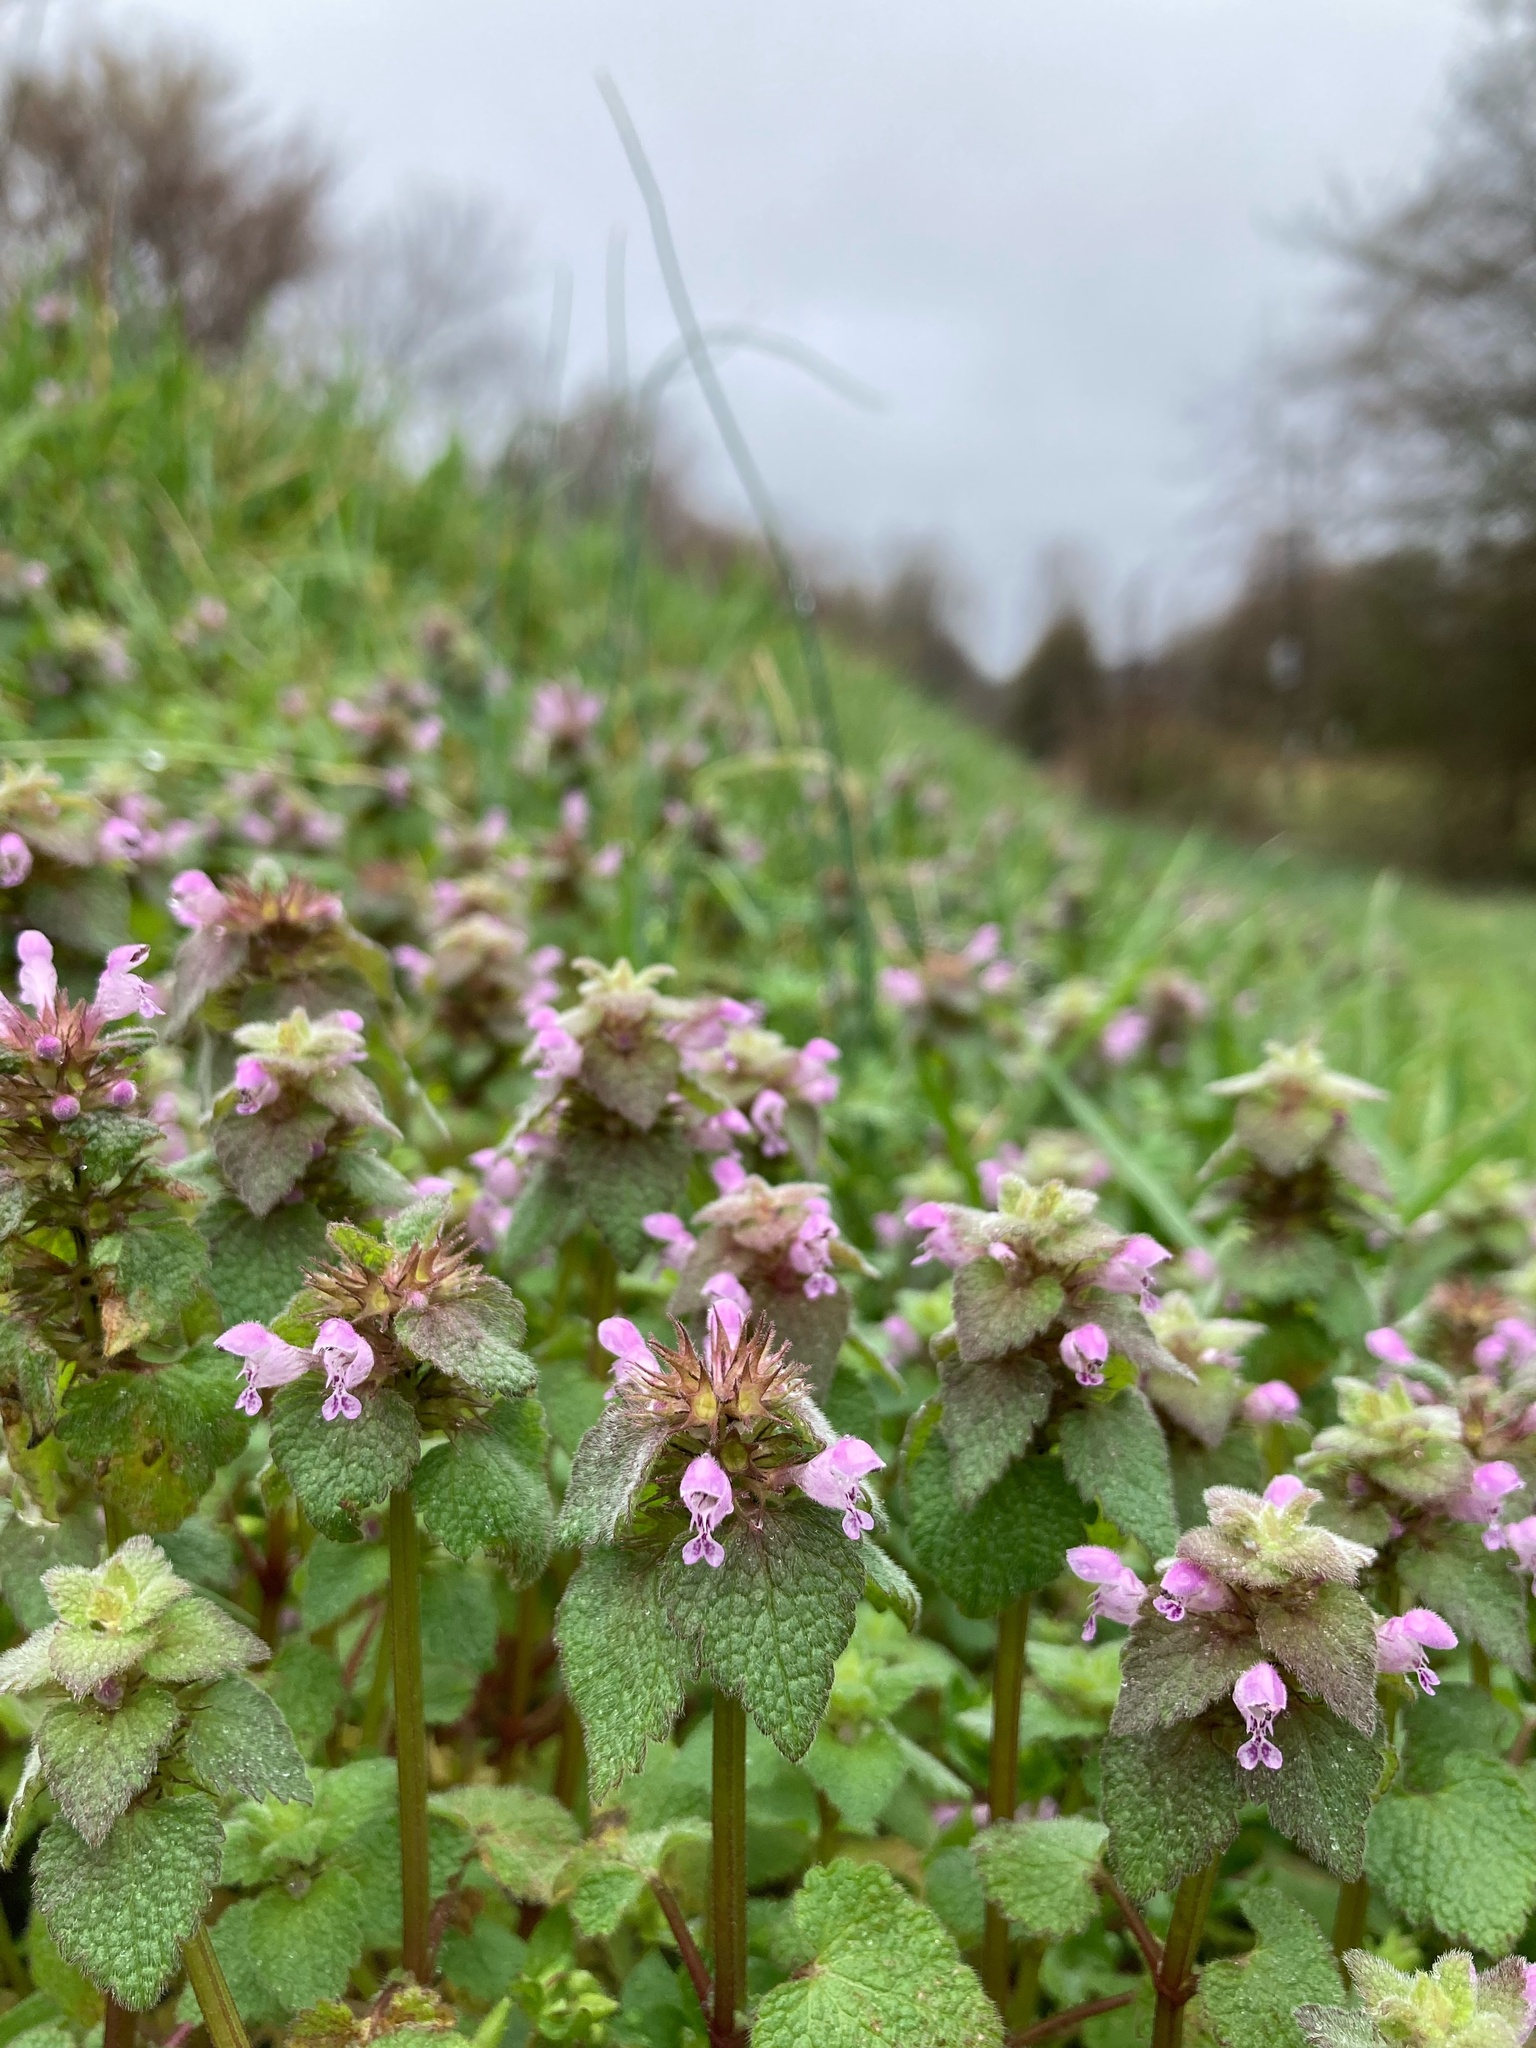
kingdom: Plantae
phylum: Tracheophyta
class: Magnoliopsida
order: Lamiales
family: Lamiaceae
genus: Lamium
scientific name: Lamium purpureum
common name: Red dead-nettle
